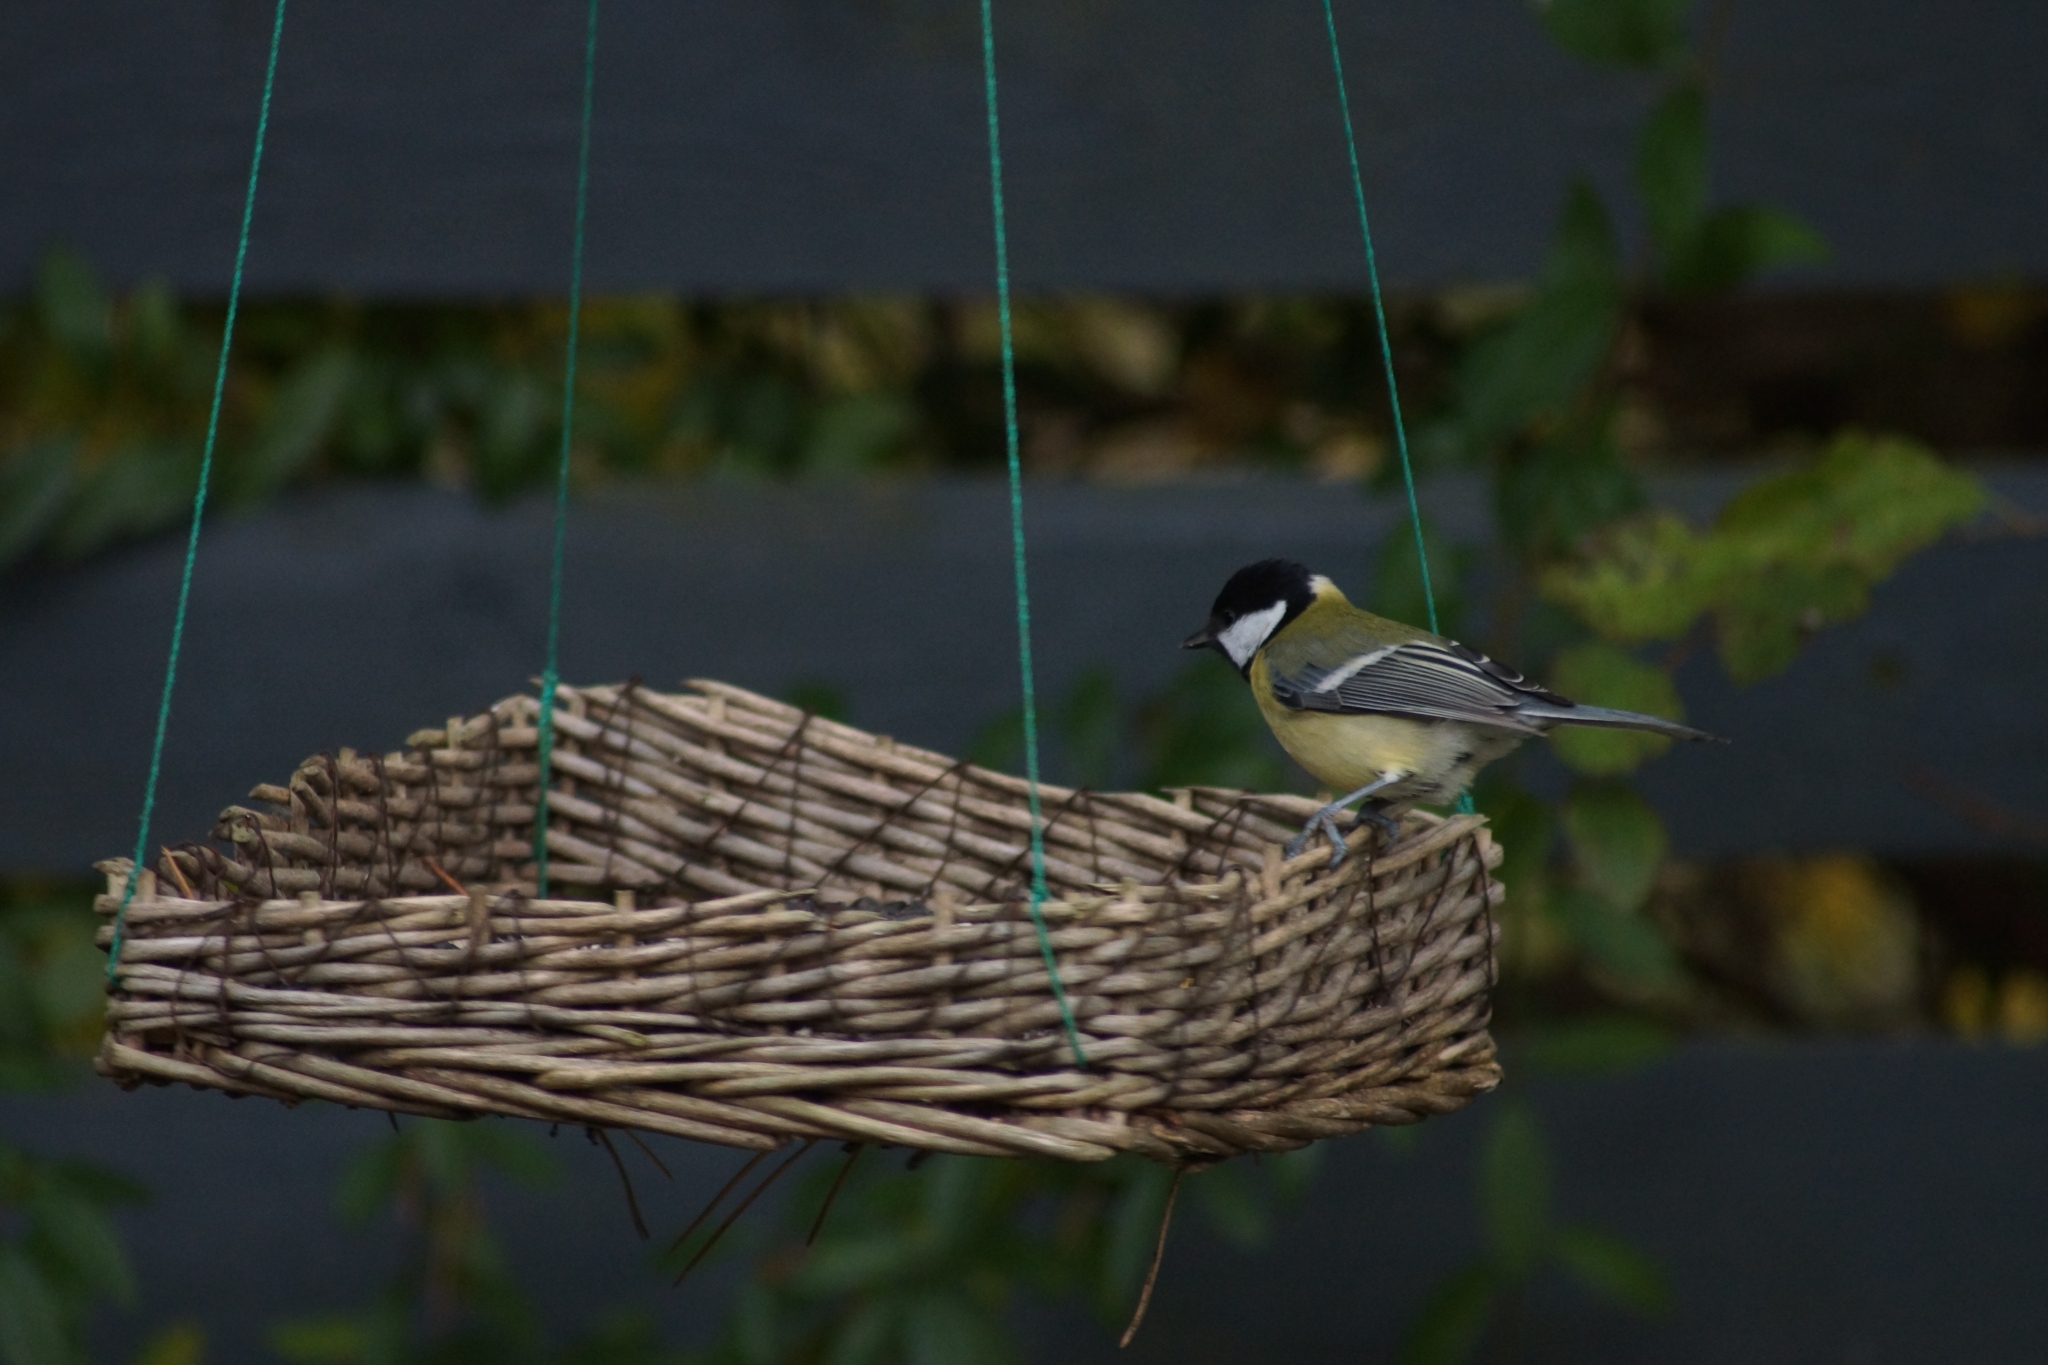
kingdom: Animalia
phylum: Chordata
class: Aves
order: Passeriformes
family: Paridae
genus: Parus
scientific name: Parus major
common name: Great tit
